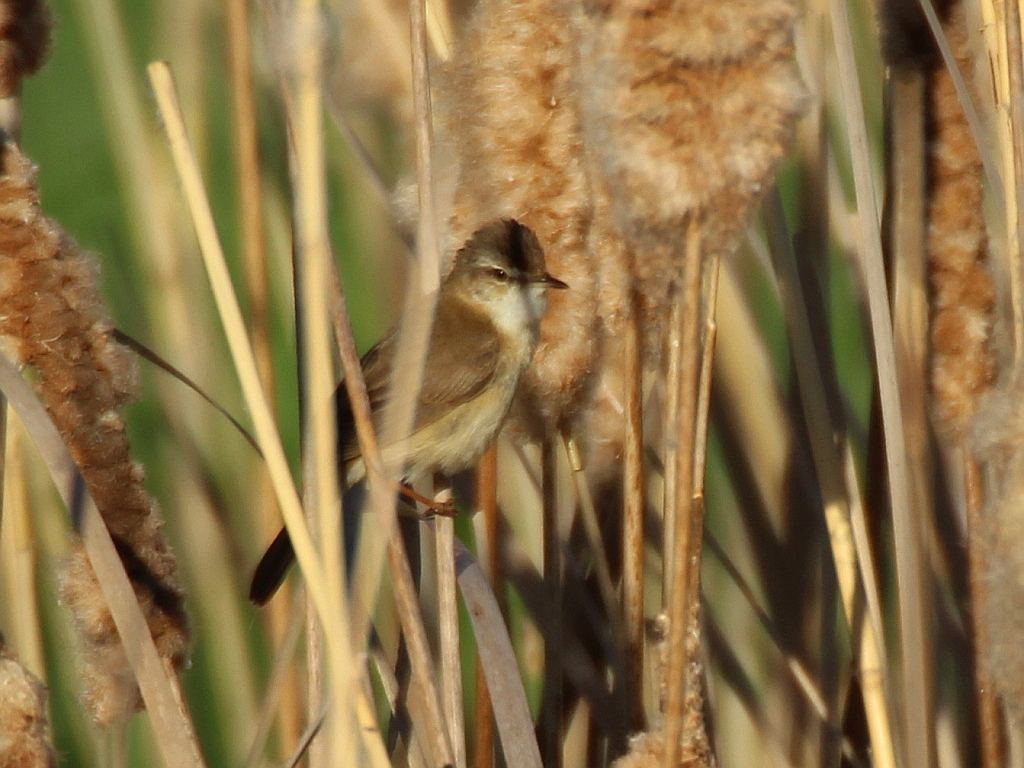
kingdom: Animalia
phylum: Chordata
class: Aves
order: Passeriformes
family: Acrocephalidae
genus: Acrocephalus
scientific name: Acrocephalus agricola
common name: Paddyfield warbler
